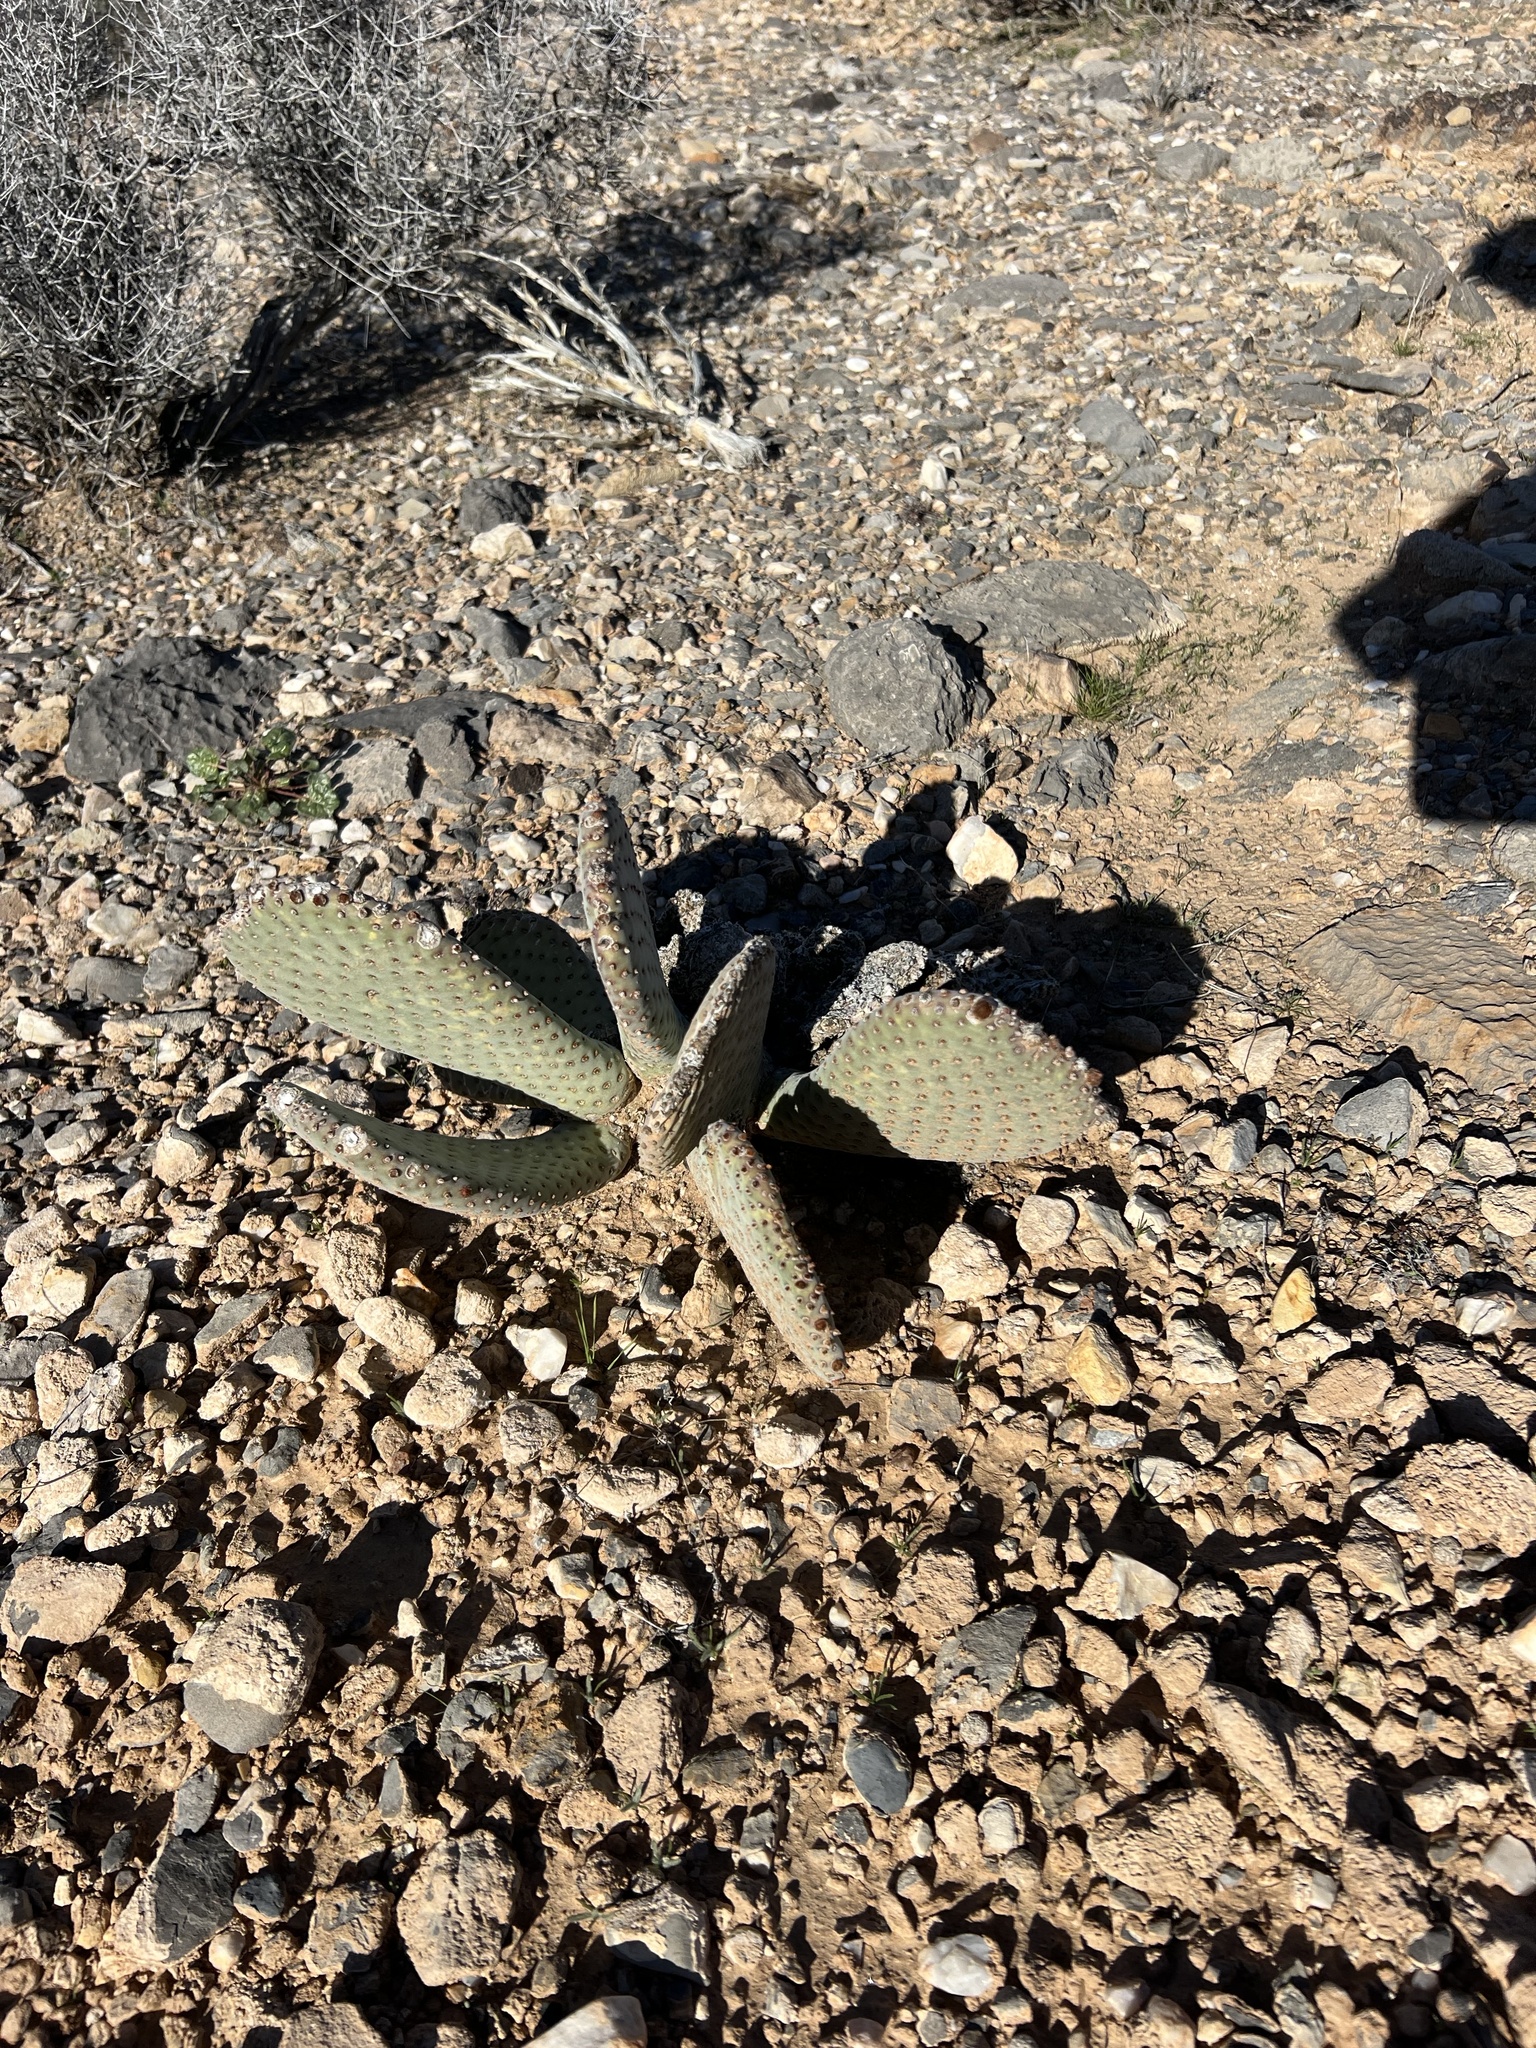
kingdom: Plantae
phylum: Tracheophyta
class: Magnoliopsida
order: Caryophyllales
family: Cactaceae
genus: Opuntia
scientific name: Opuntia basilaris
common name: Beavertail prickly-pear
